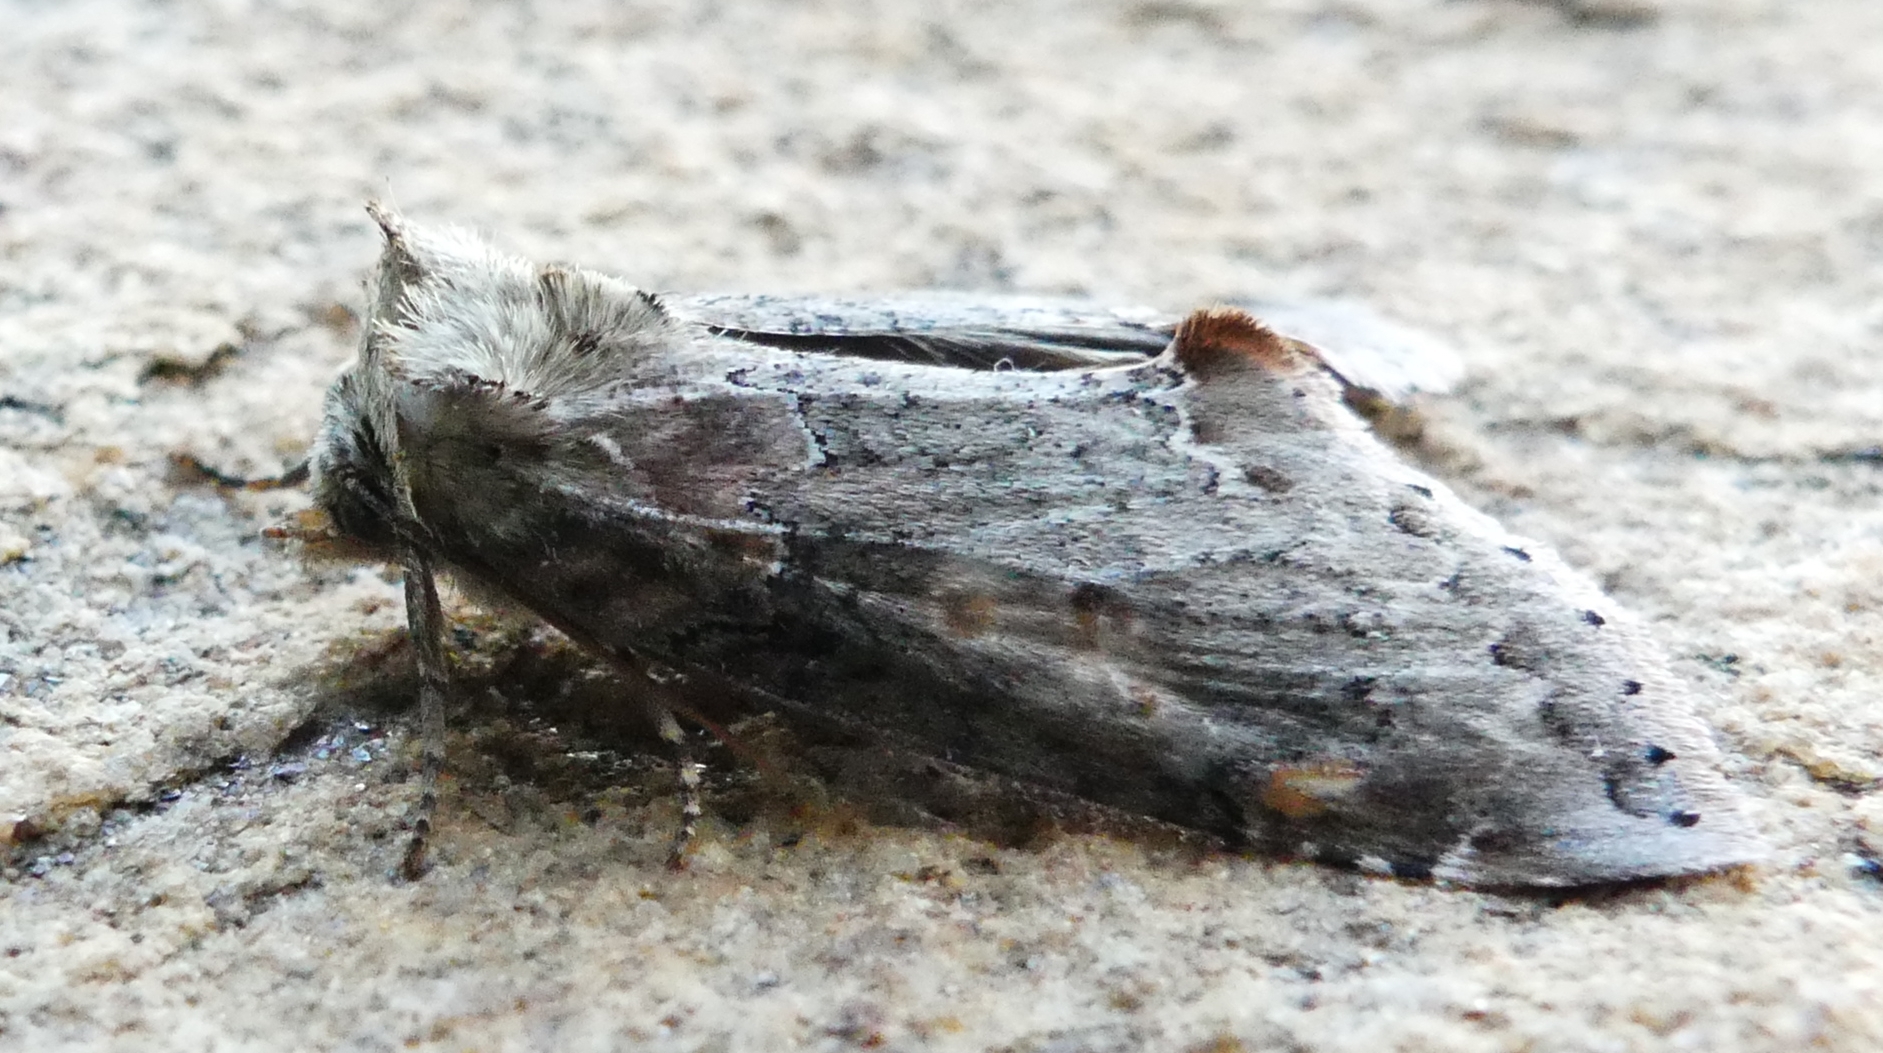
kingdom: Animalia
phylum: Arthropoda
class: Insecta
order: Lepidoptera
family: Drepanidae
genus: Pseudothyatira
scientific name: Pseudothyatira cymatophoroides
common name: Tufted thyatirid moth
